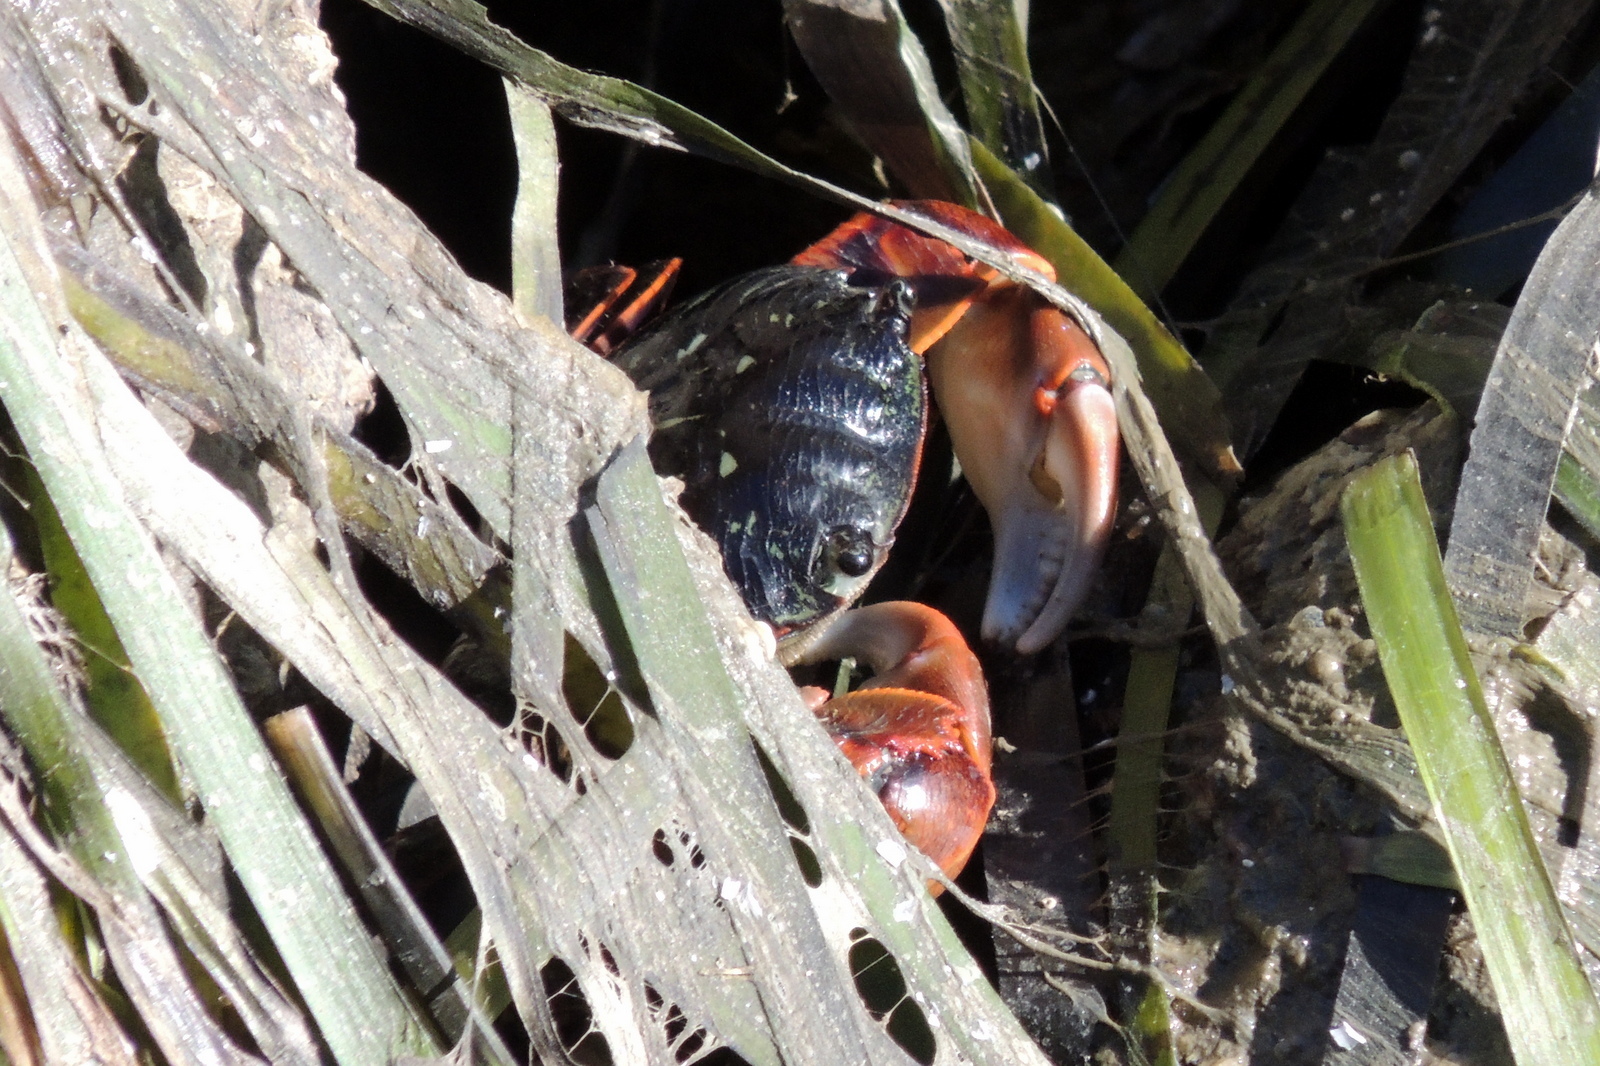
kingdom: Animalia
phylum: Arthropoda
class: Malacostraca
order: Decapoda
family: Grapsidae
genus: Pachygrapsus
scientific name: Pachygrapsus crassipes
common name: Striped shore crab
